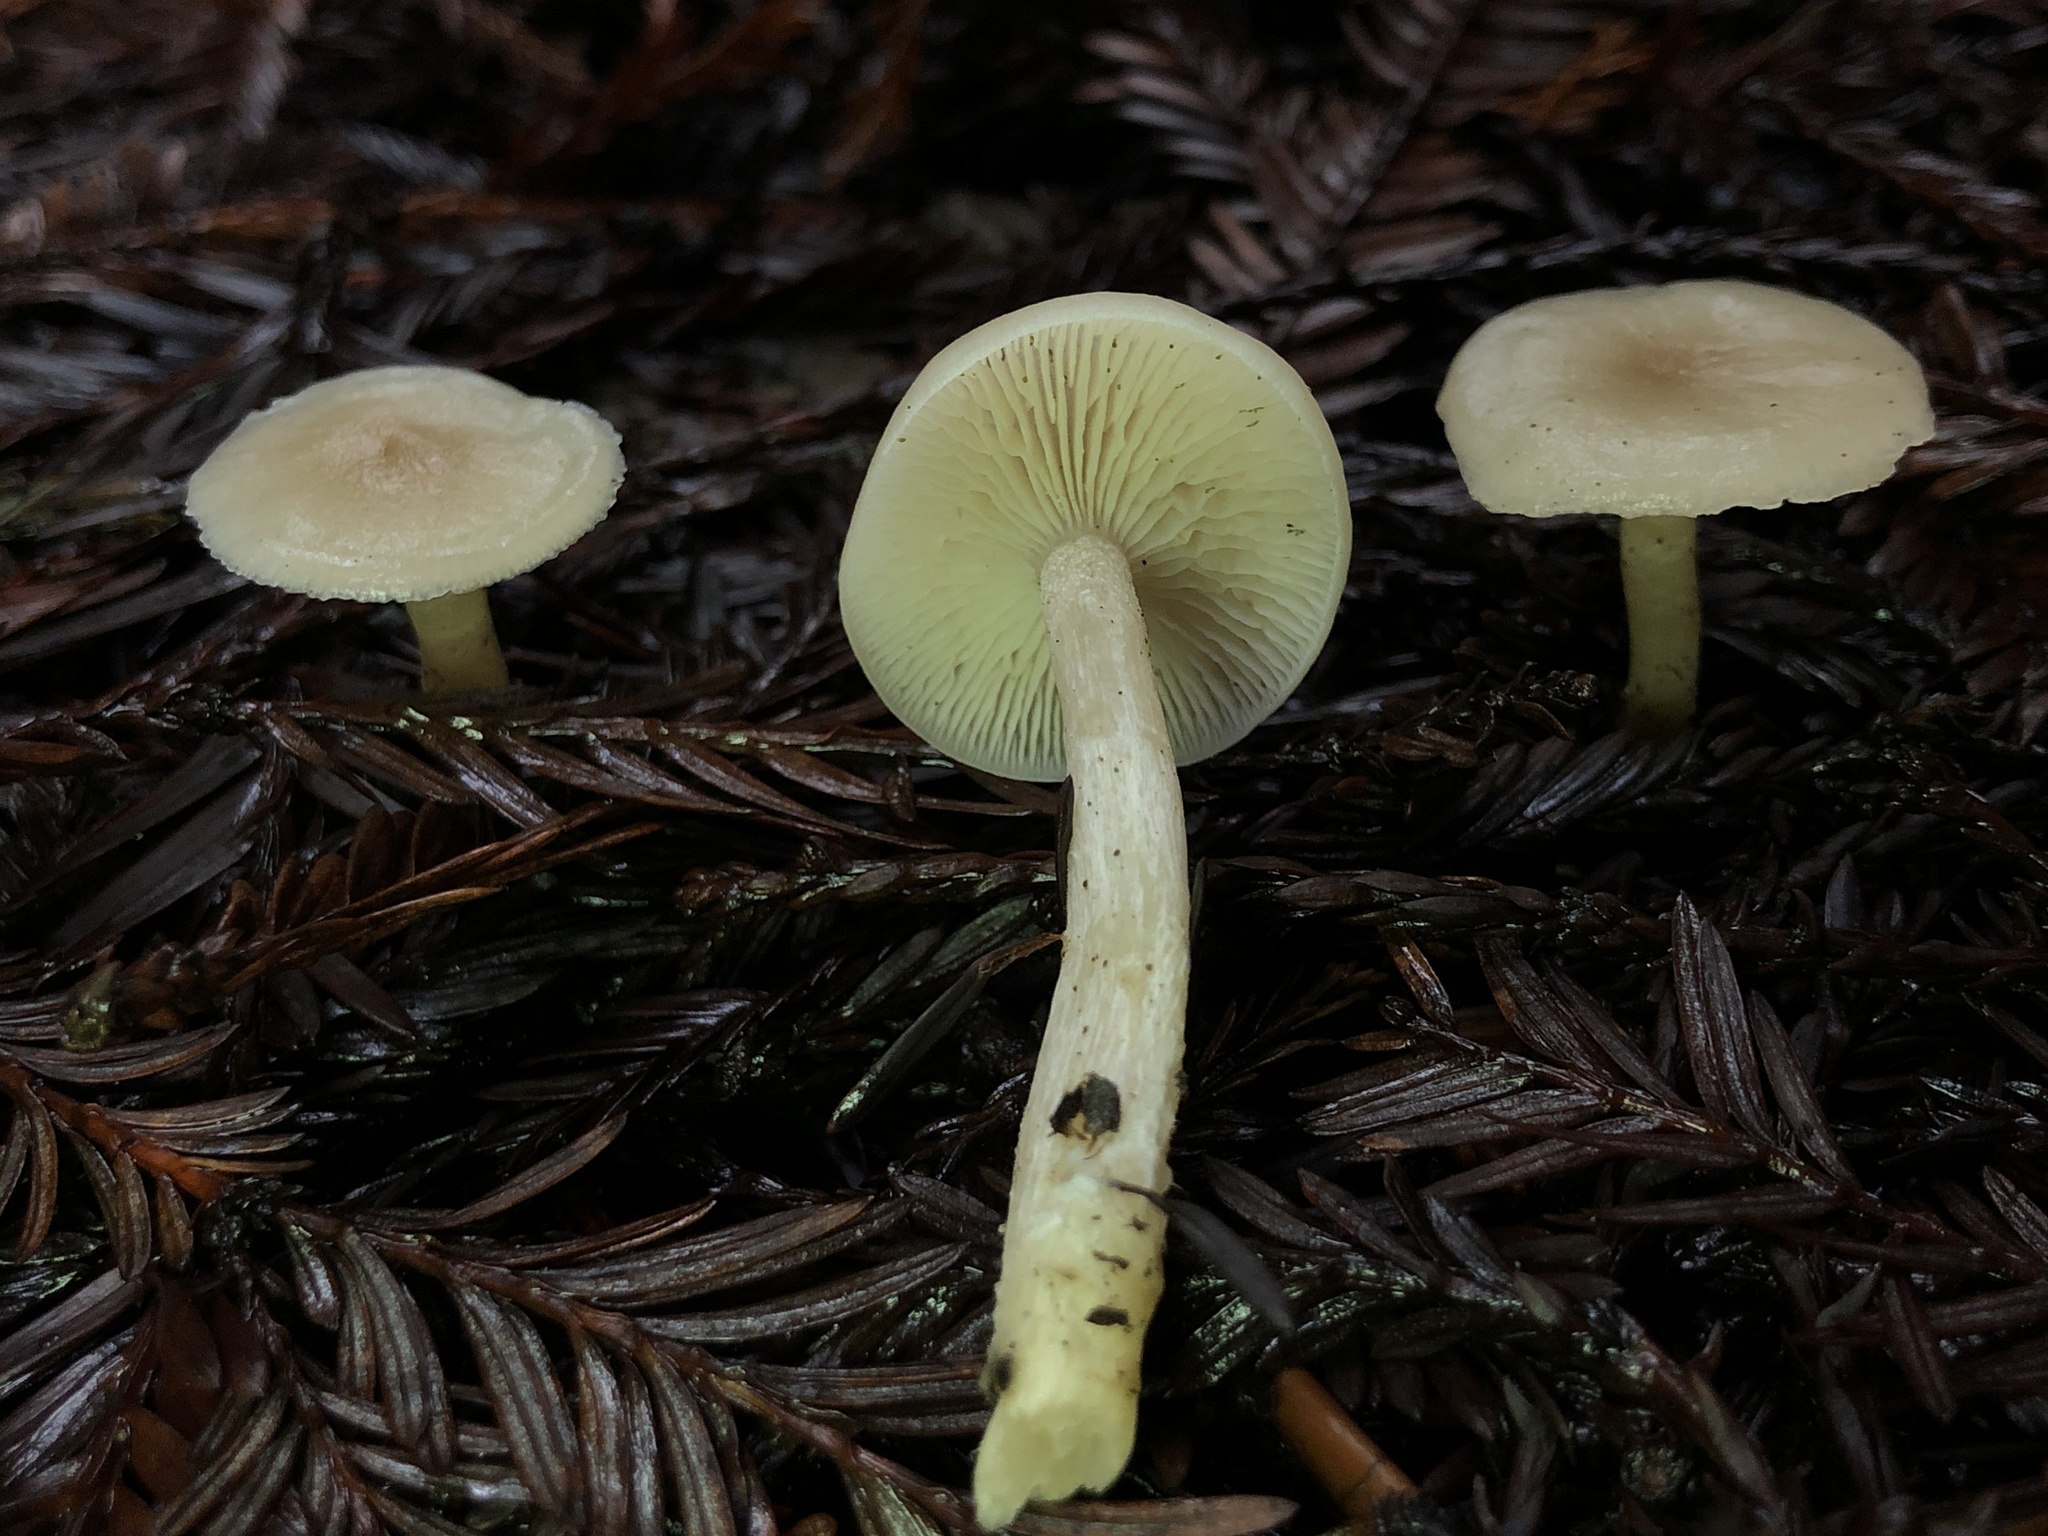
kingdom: Fungi
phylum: Basidiomycota
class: Agaricomycetes
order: Agaricales
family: Tricholomataceae
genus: Clitocybe
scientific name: Clitocybe fragrans
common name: Fragrant funnel
